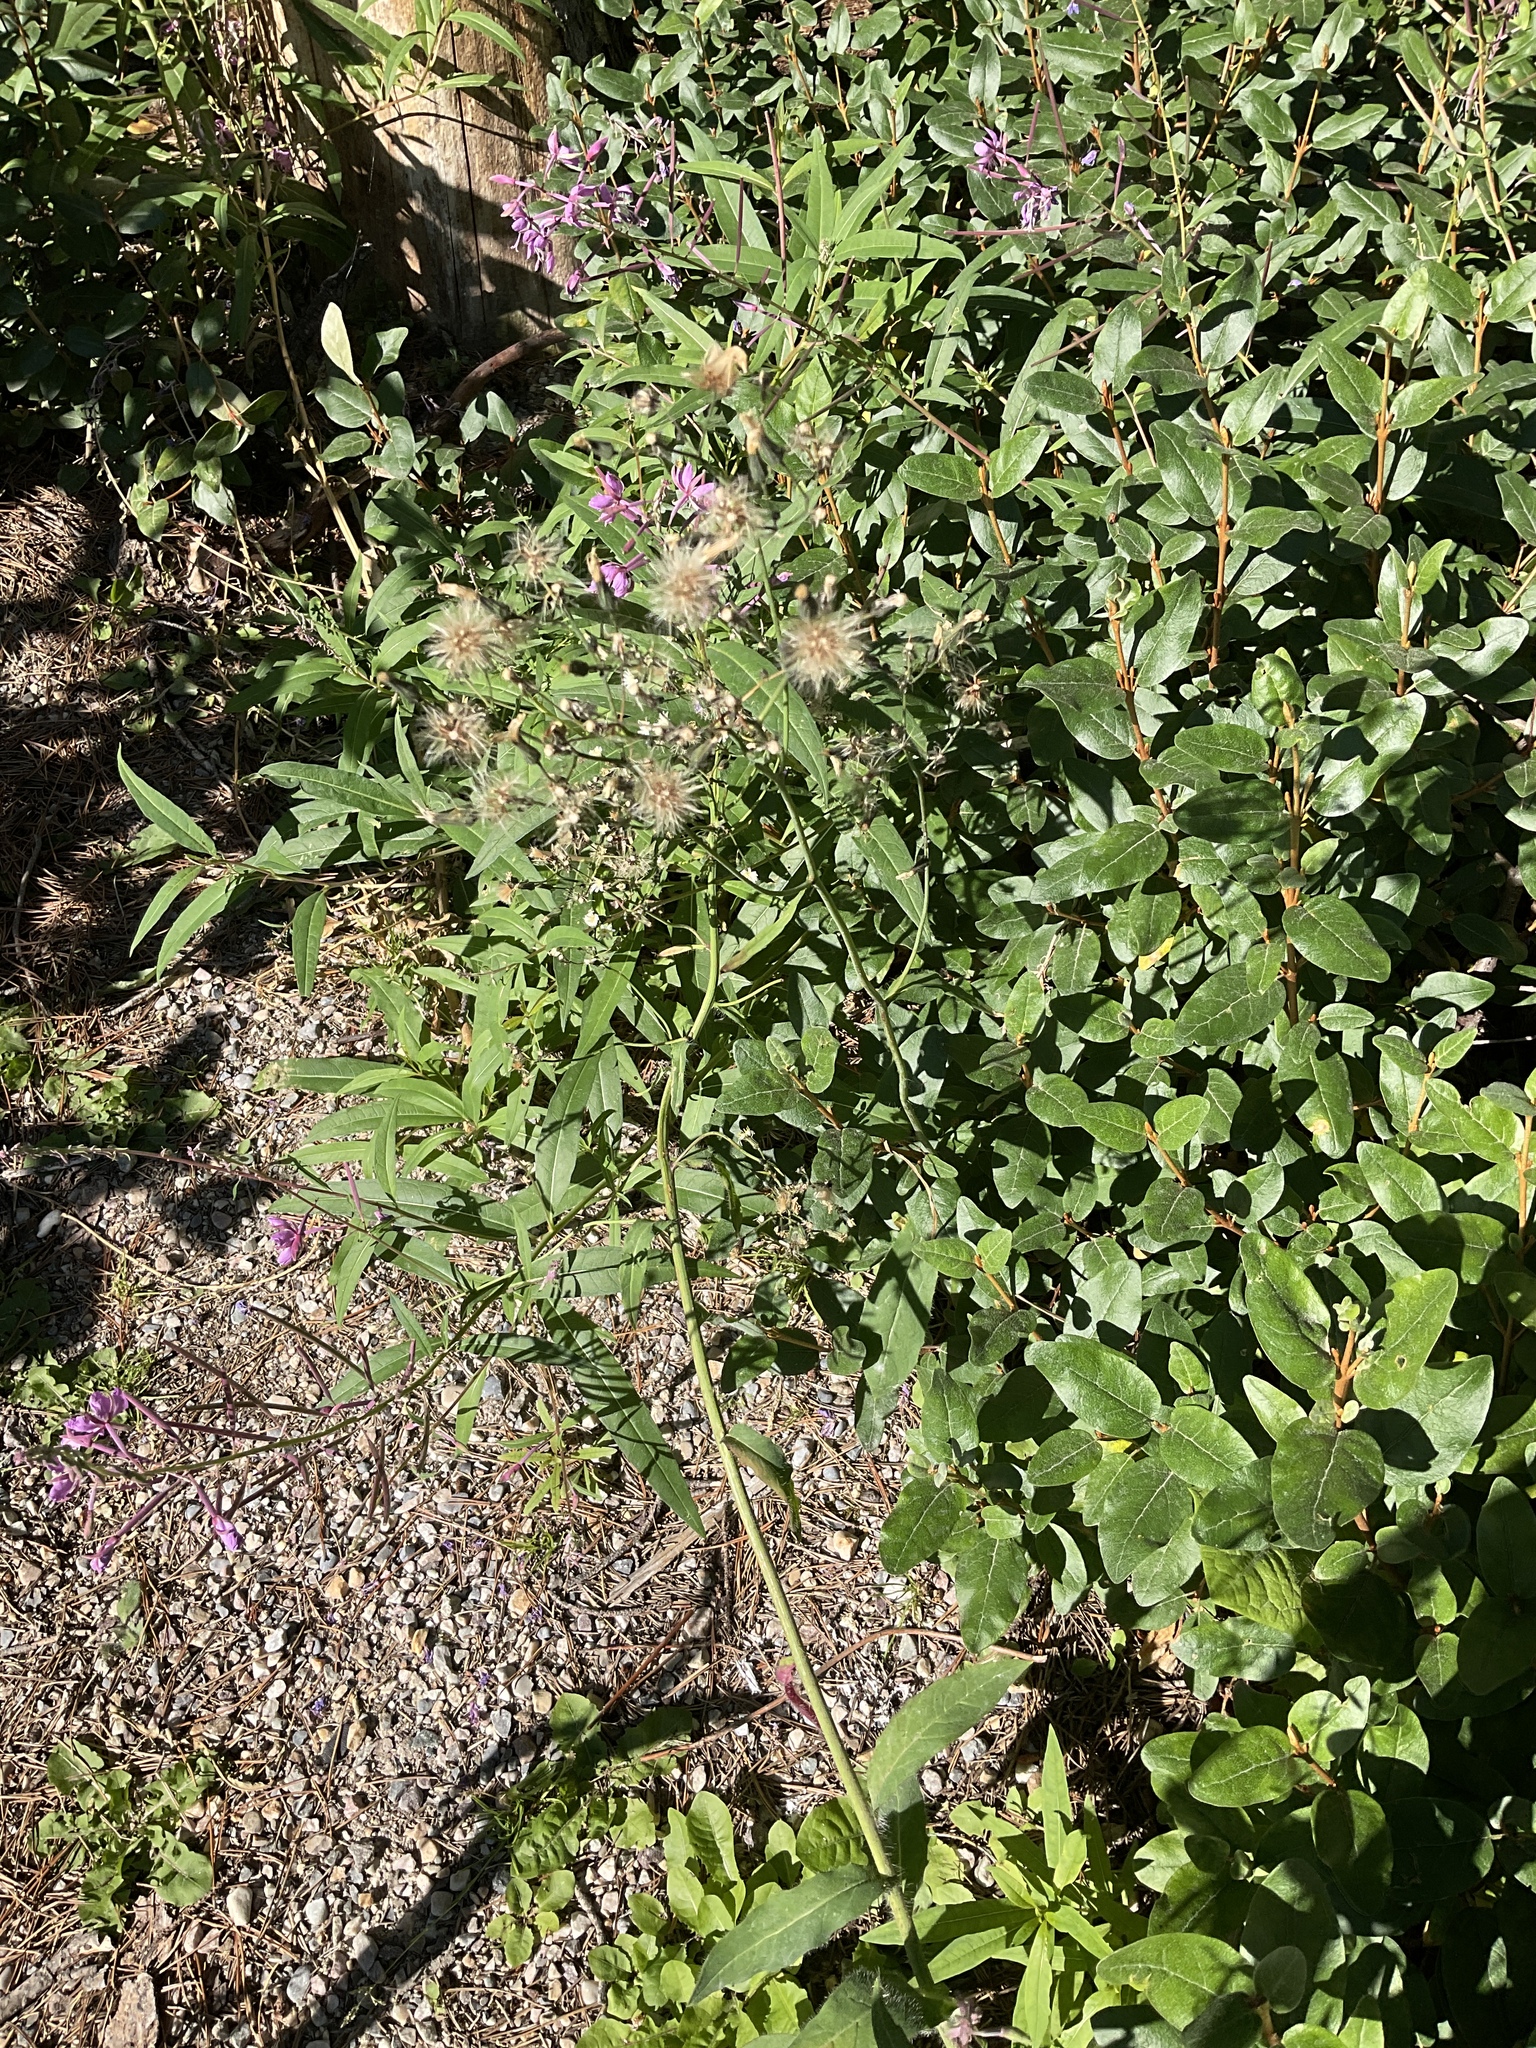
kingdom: Plantae
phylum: Tracheophyta
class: Magnoliopsida
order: Asterales
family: Asteraceae
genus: Hieracium
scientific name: Hieracium albiflorum
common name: White hawkweed
